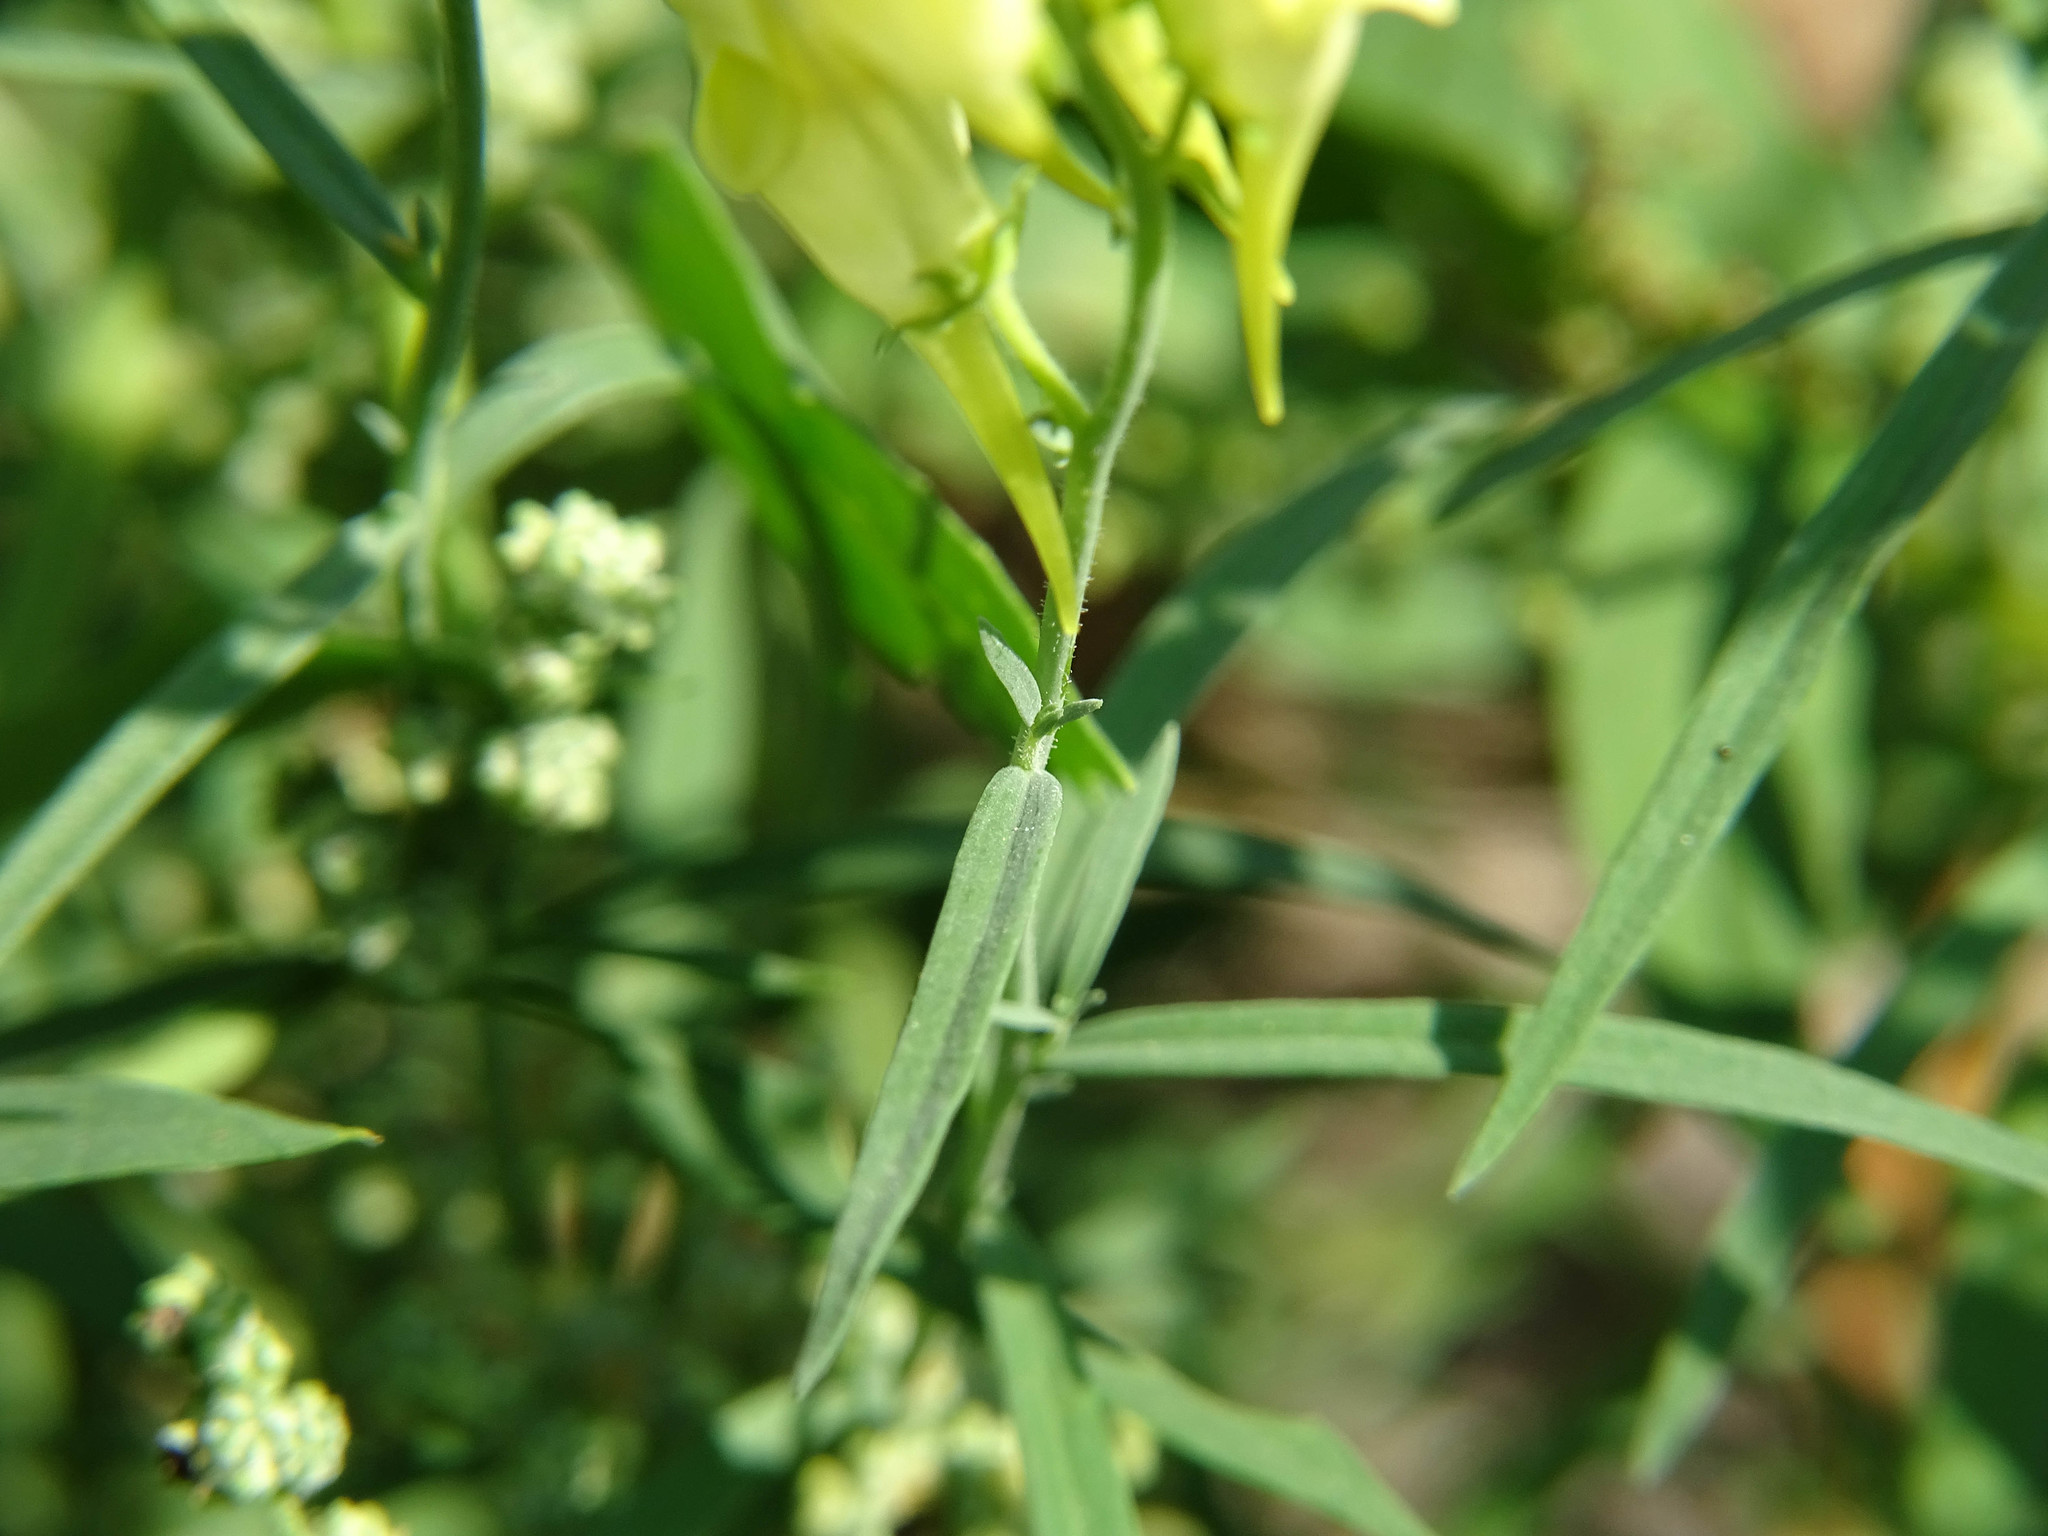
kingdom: Plantae
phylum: Tracheophyta
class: Magnoliopsida
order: Lamiales
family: Plantaginaceae
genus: Linaria
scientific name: Linaria vulgaris
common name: Butter and eggs
